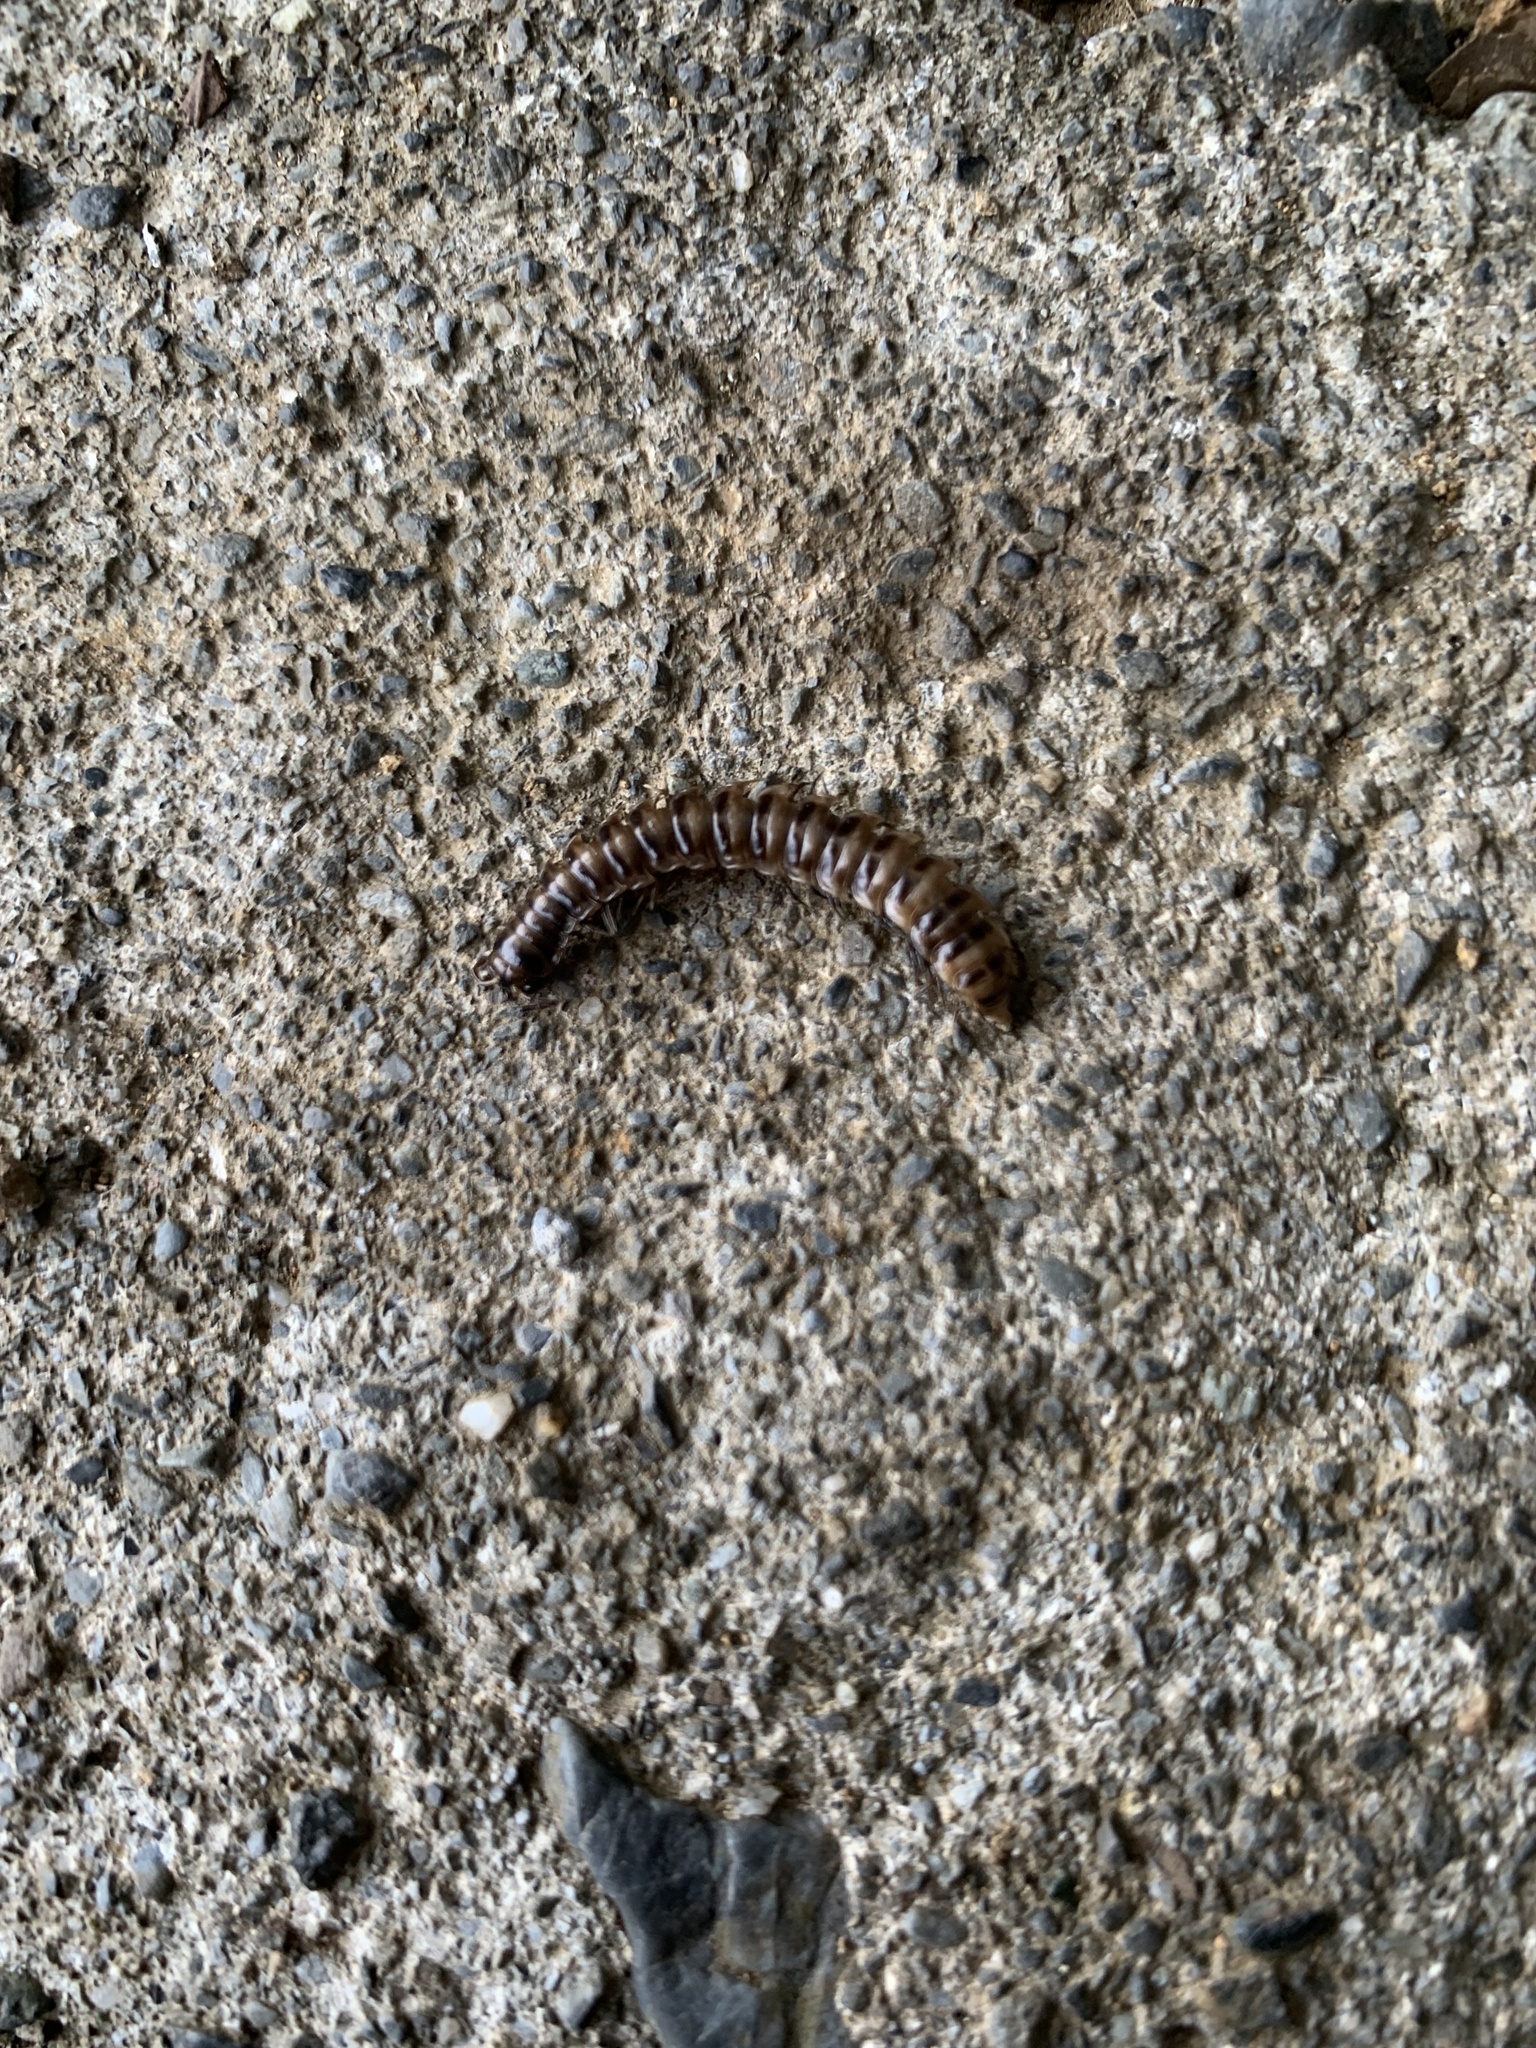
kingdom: Animalia
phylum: Arthropoda
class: Diplopoda
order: Polydesmida
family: Paradoxosomatidae
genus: Chamberlinius
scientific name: Chamberlinius hualienensis
